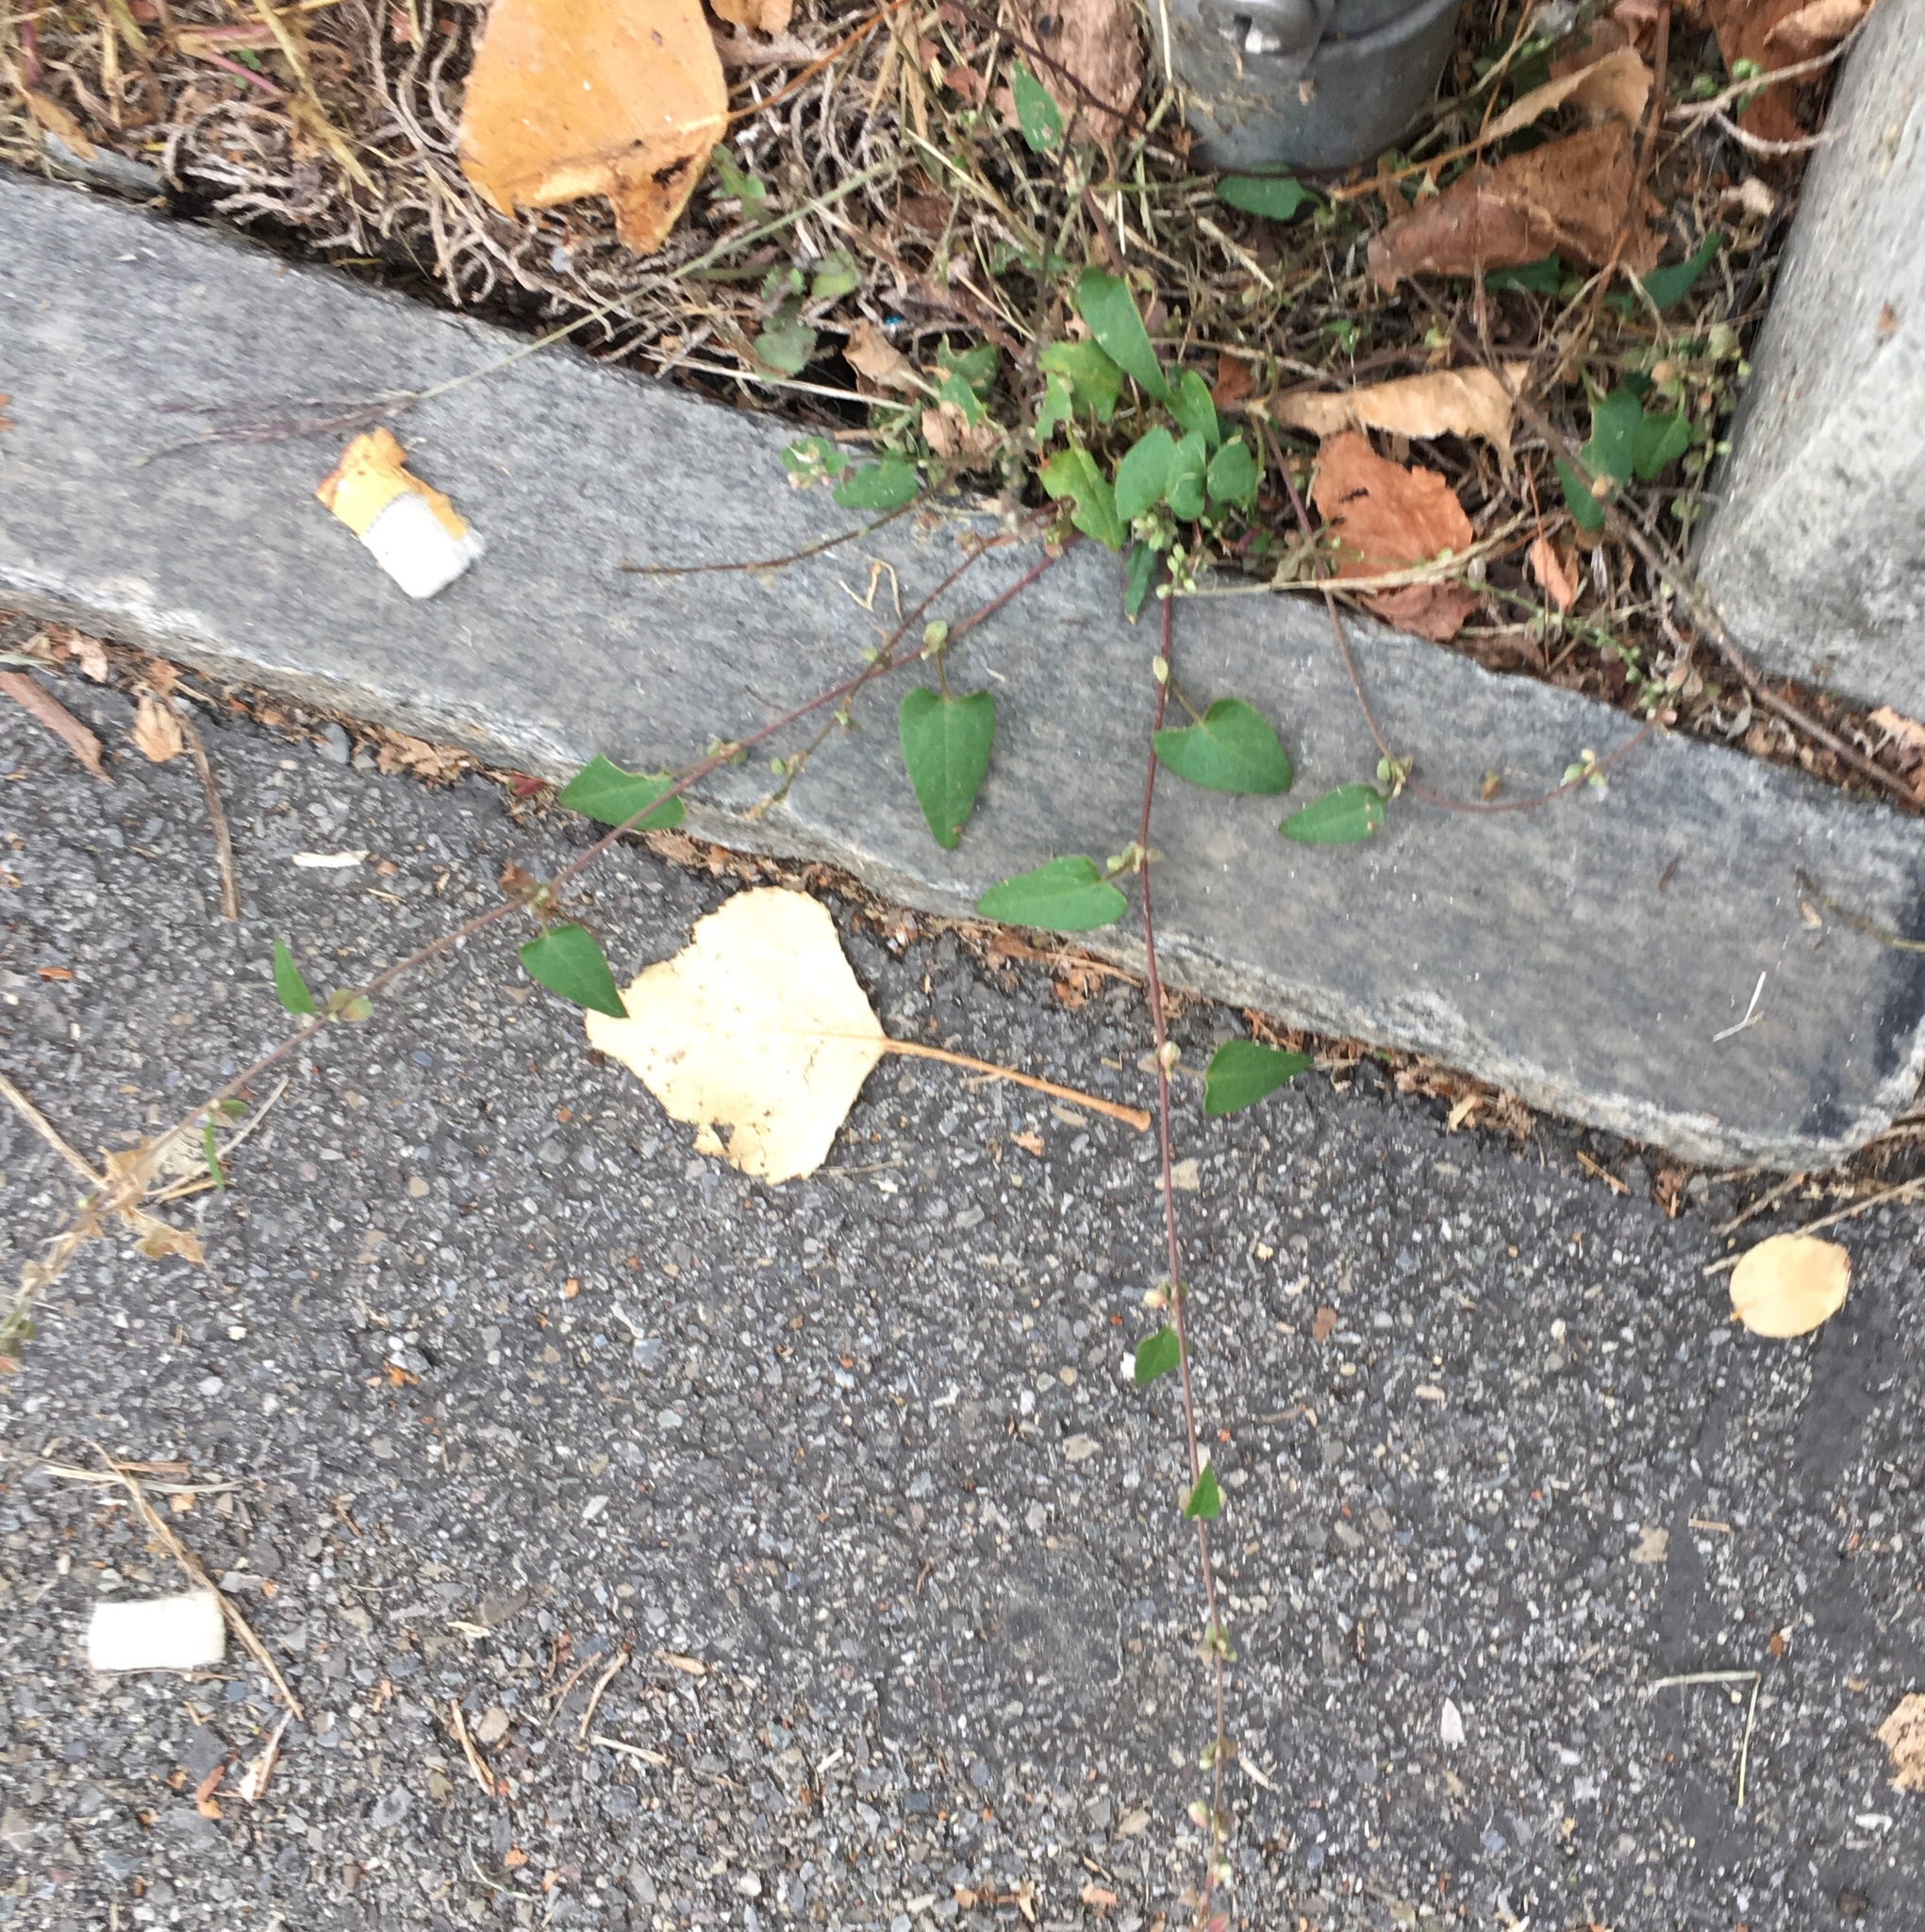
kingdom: Plantae
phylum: Tracheophyta
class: Magnoliopsida
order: Caryophyllales
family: Polygonaceae
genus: Fallopia
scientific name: Fallopia convolvulus
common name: Black bindweed
